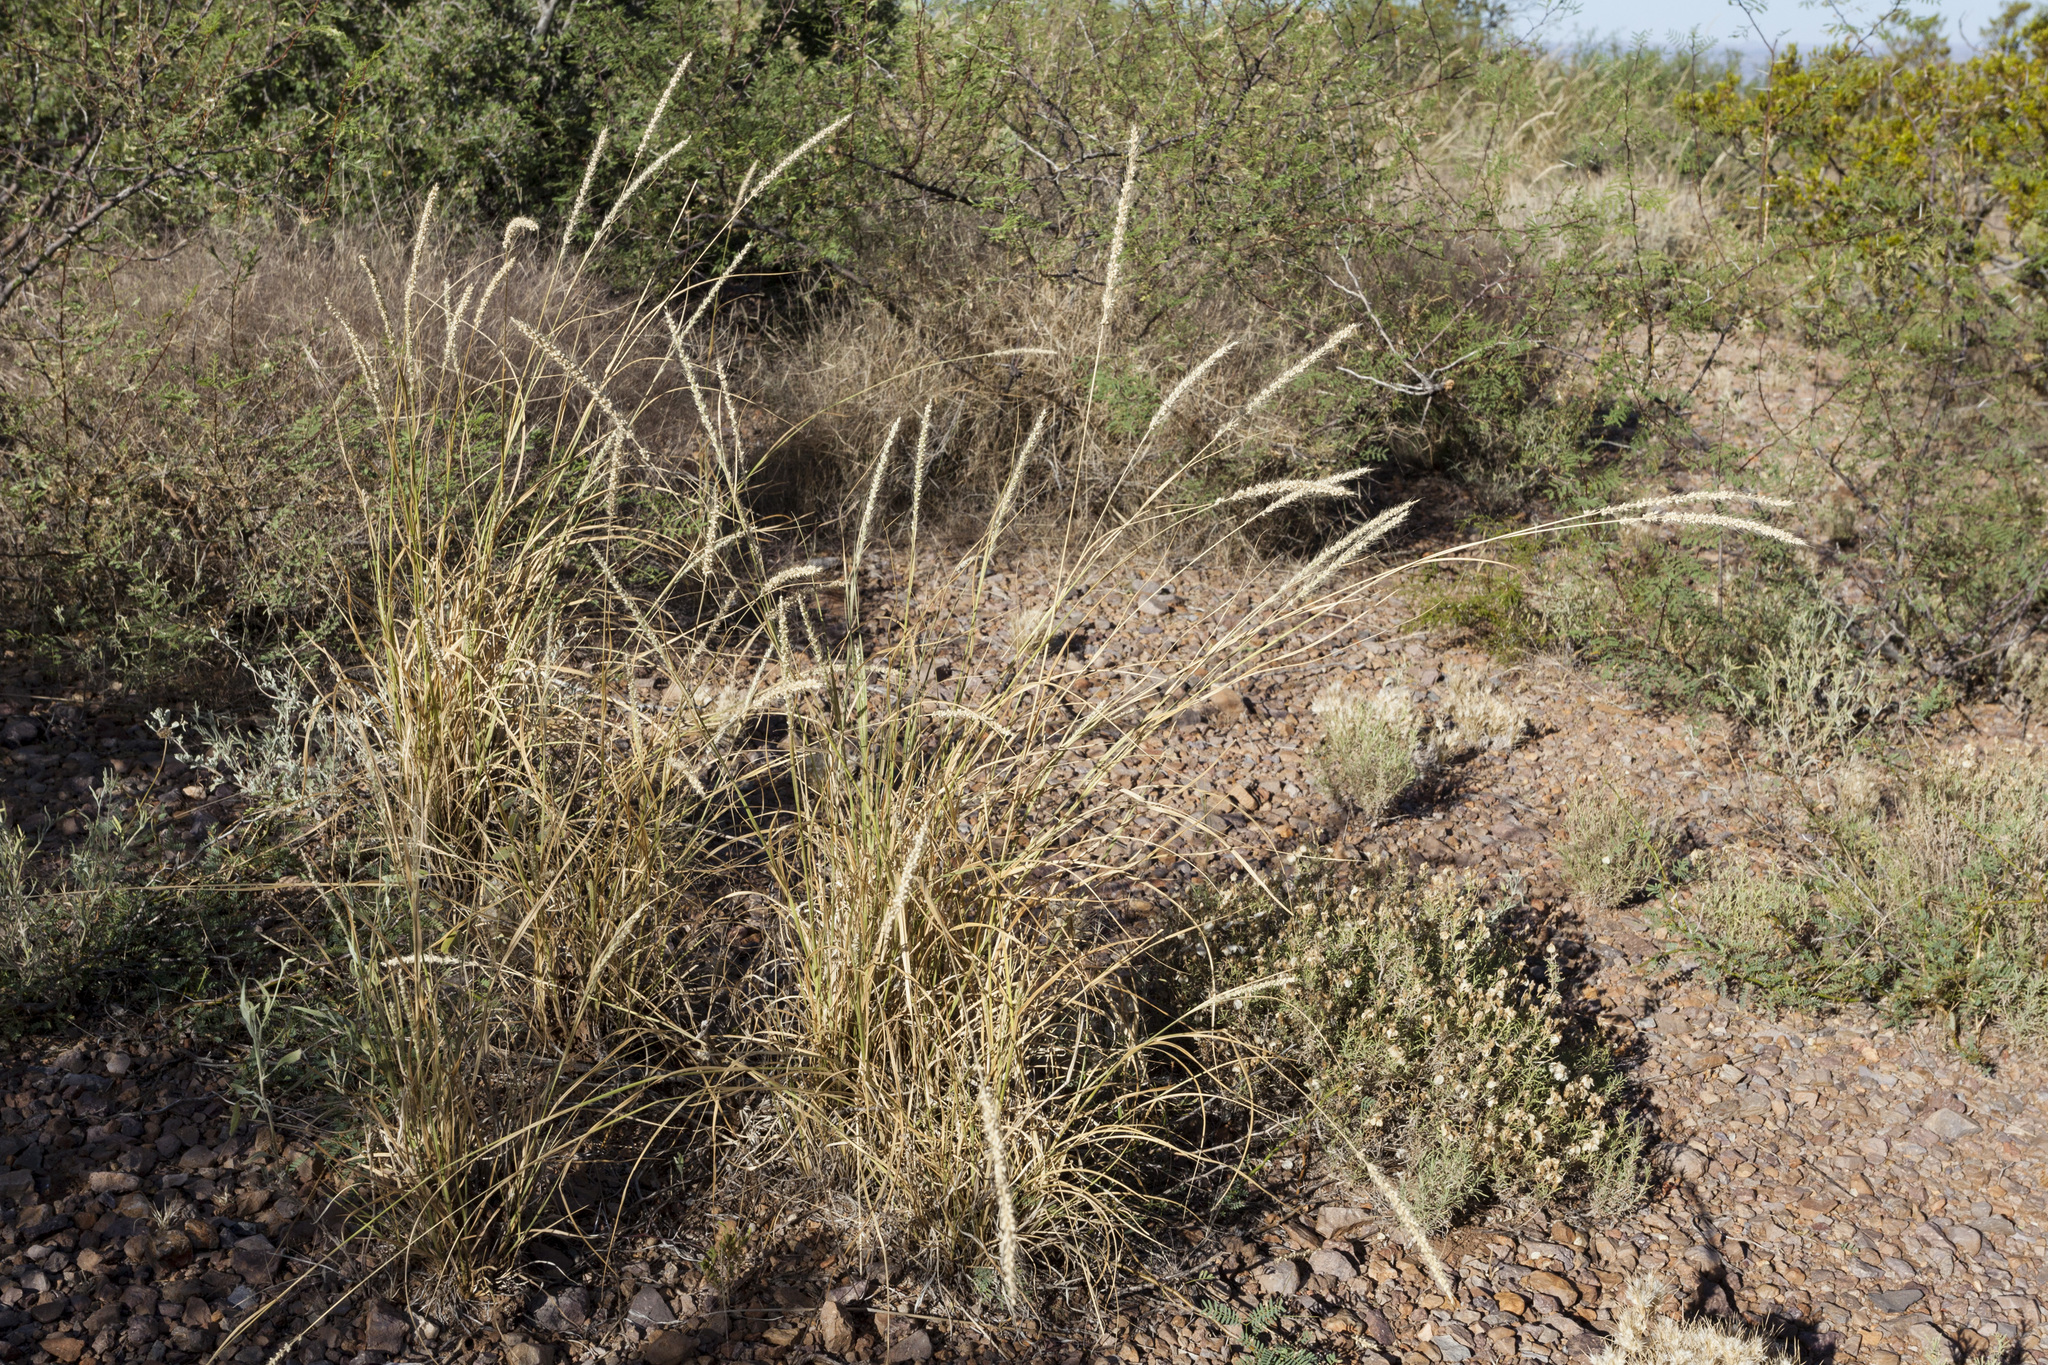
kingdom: Plantae
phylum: Tracheophyta
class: Liliopsida
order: Poales
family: Poaceae
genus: Setaria
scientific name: Setaria leucopila
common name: Plains bristle grass
